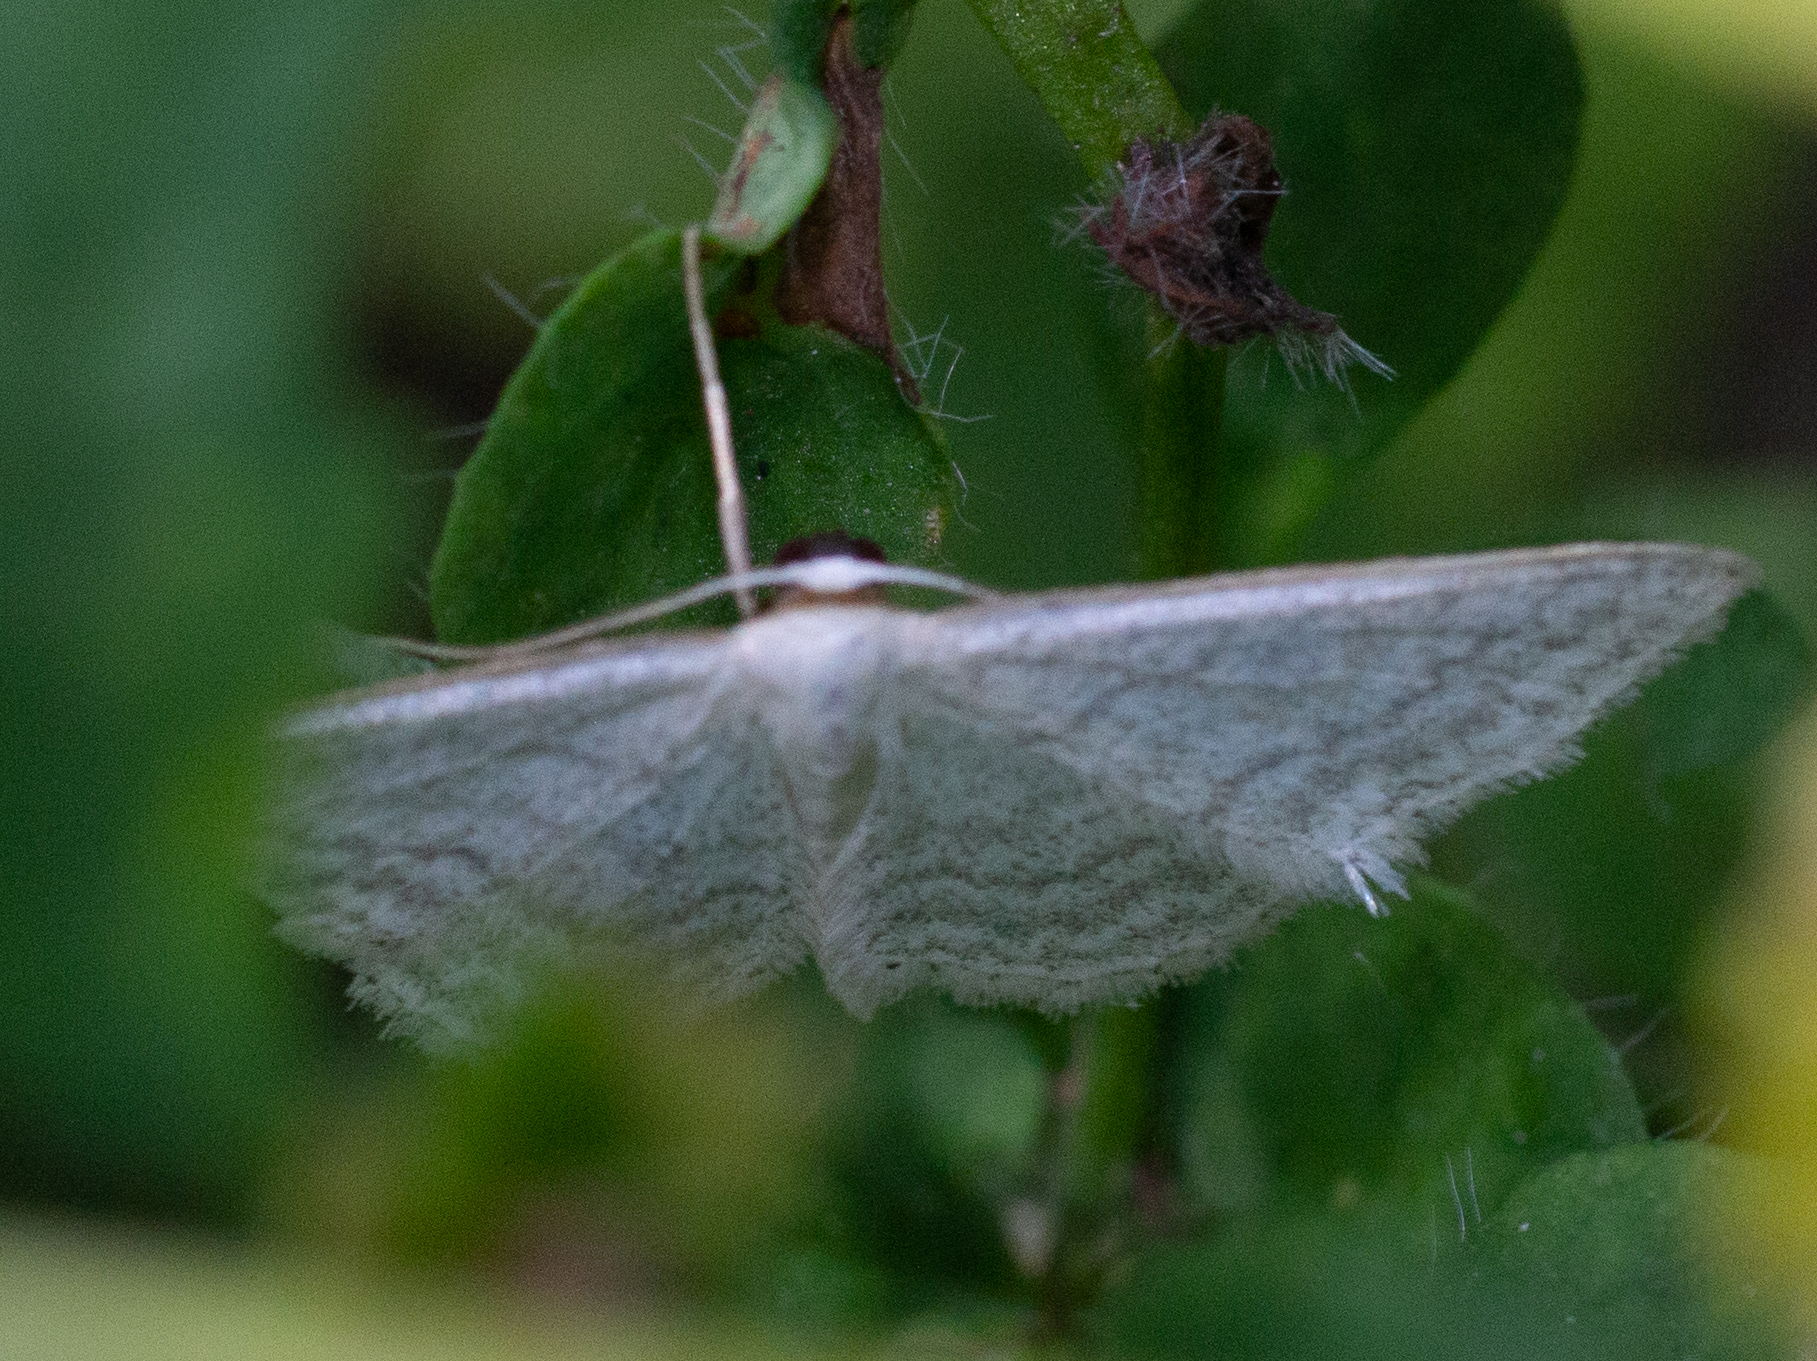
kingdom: Animalia
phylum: Arthropoda
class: Insecta
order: Lepidoptera
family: Geometridae
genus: Idaea
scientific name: Idaea subsericeata
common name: Satin wave
